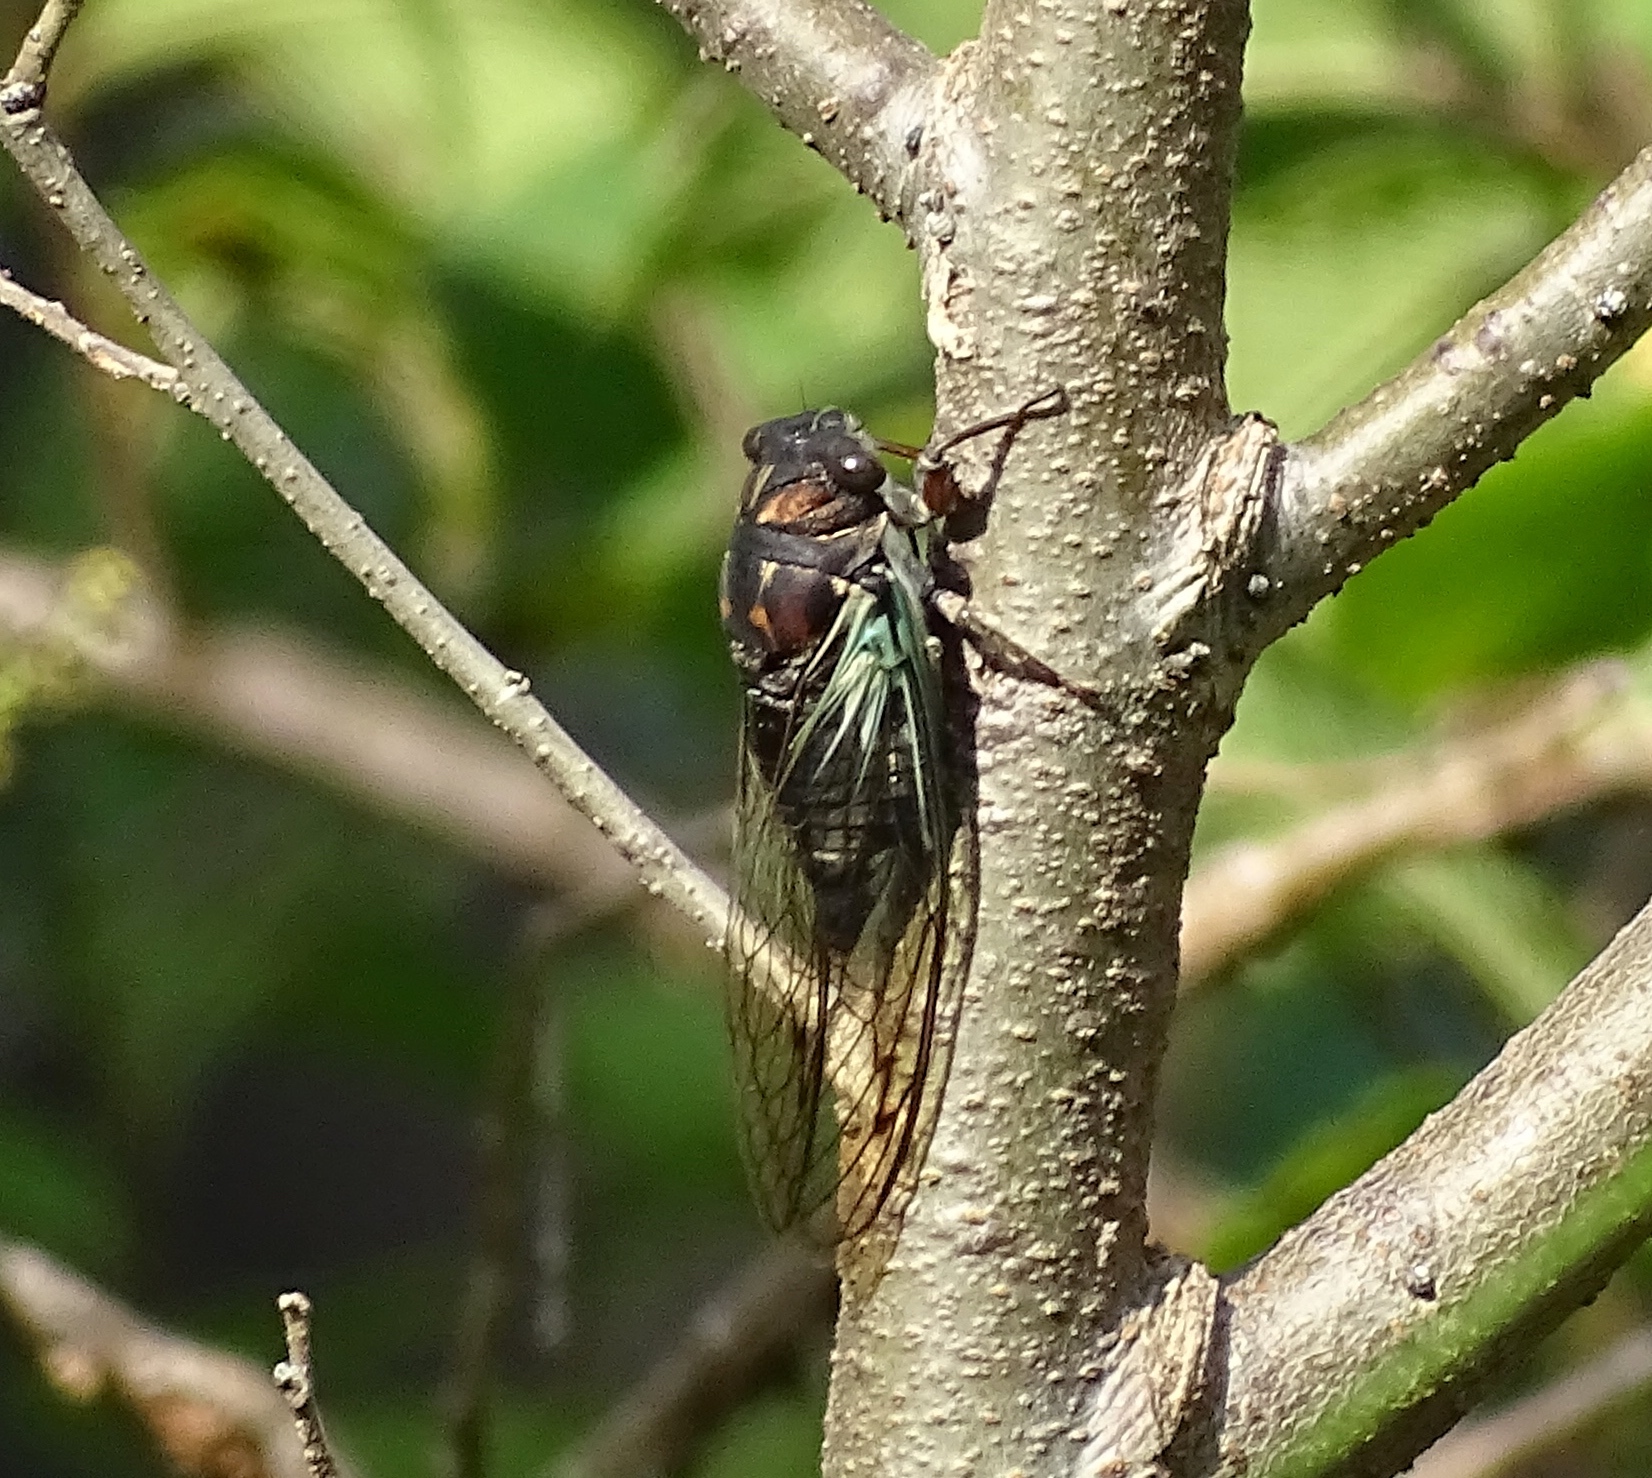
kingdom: Animalia
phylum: Arthropoda
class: Insecta
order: Hemiptera
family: Cicadidae
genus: Neotibicen
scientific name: Neotibicen lyricen
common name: Lyric cicada
